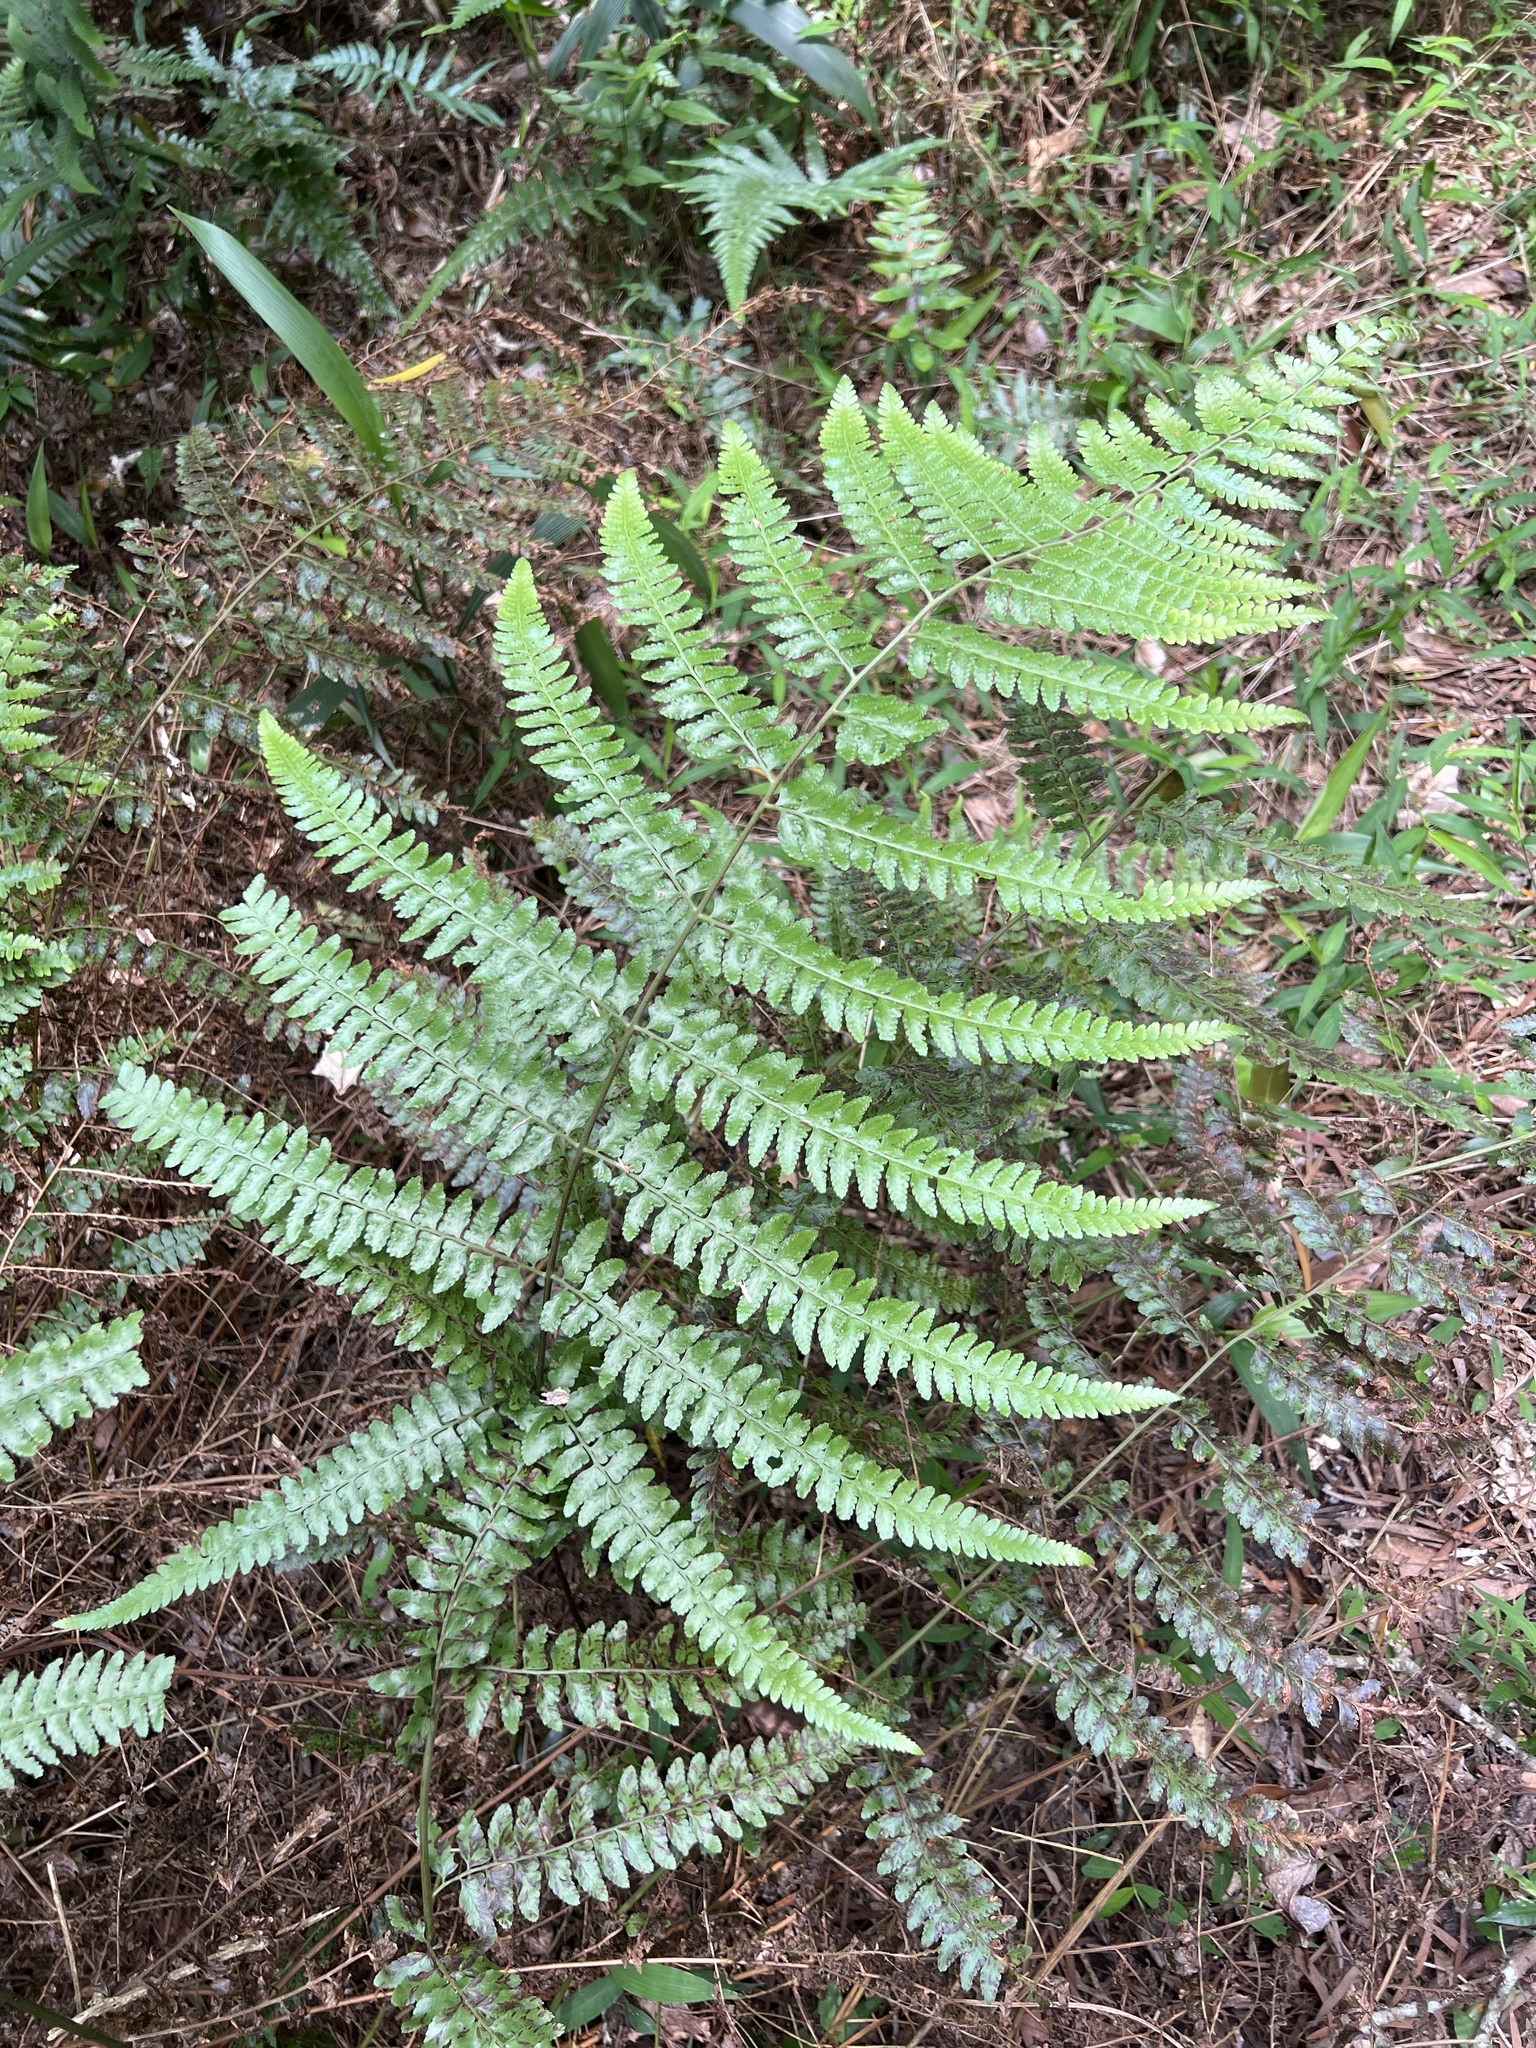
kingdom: Plantae
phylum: Tracheophyta
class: Polypodiopsida
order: Polypodiales
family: Dennstaedtiaceae
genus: Microlepia
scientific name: Microlepia krameri
